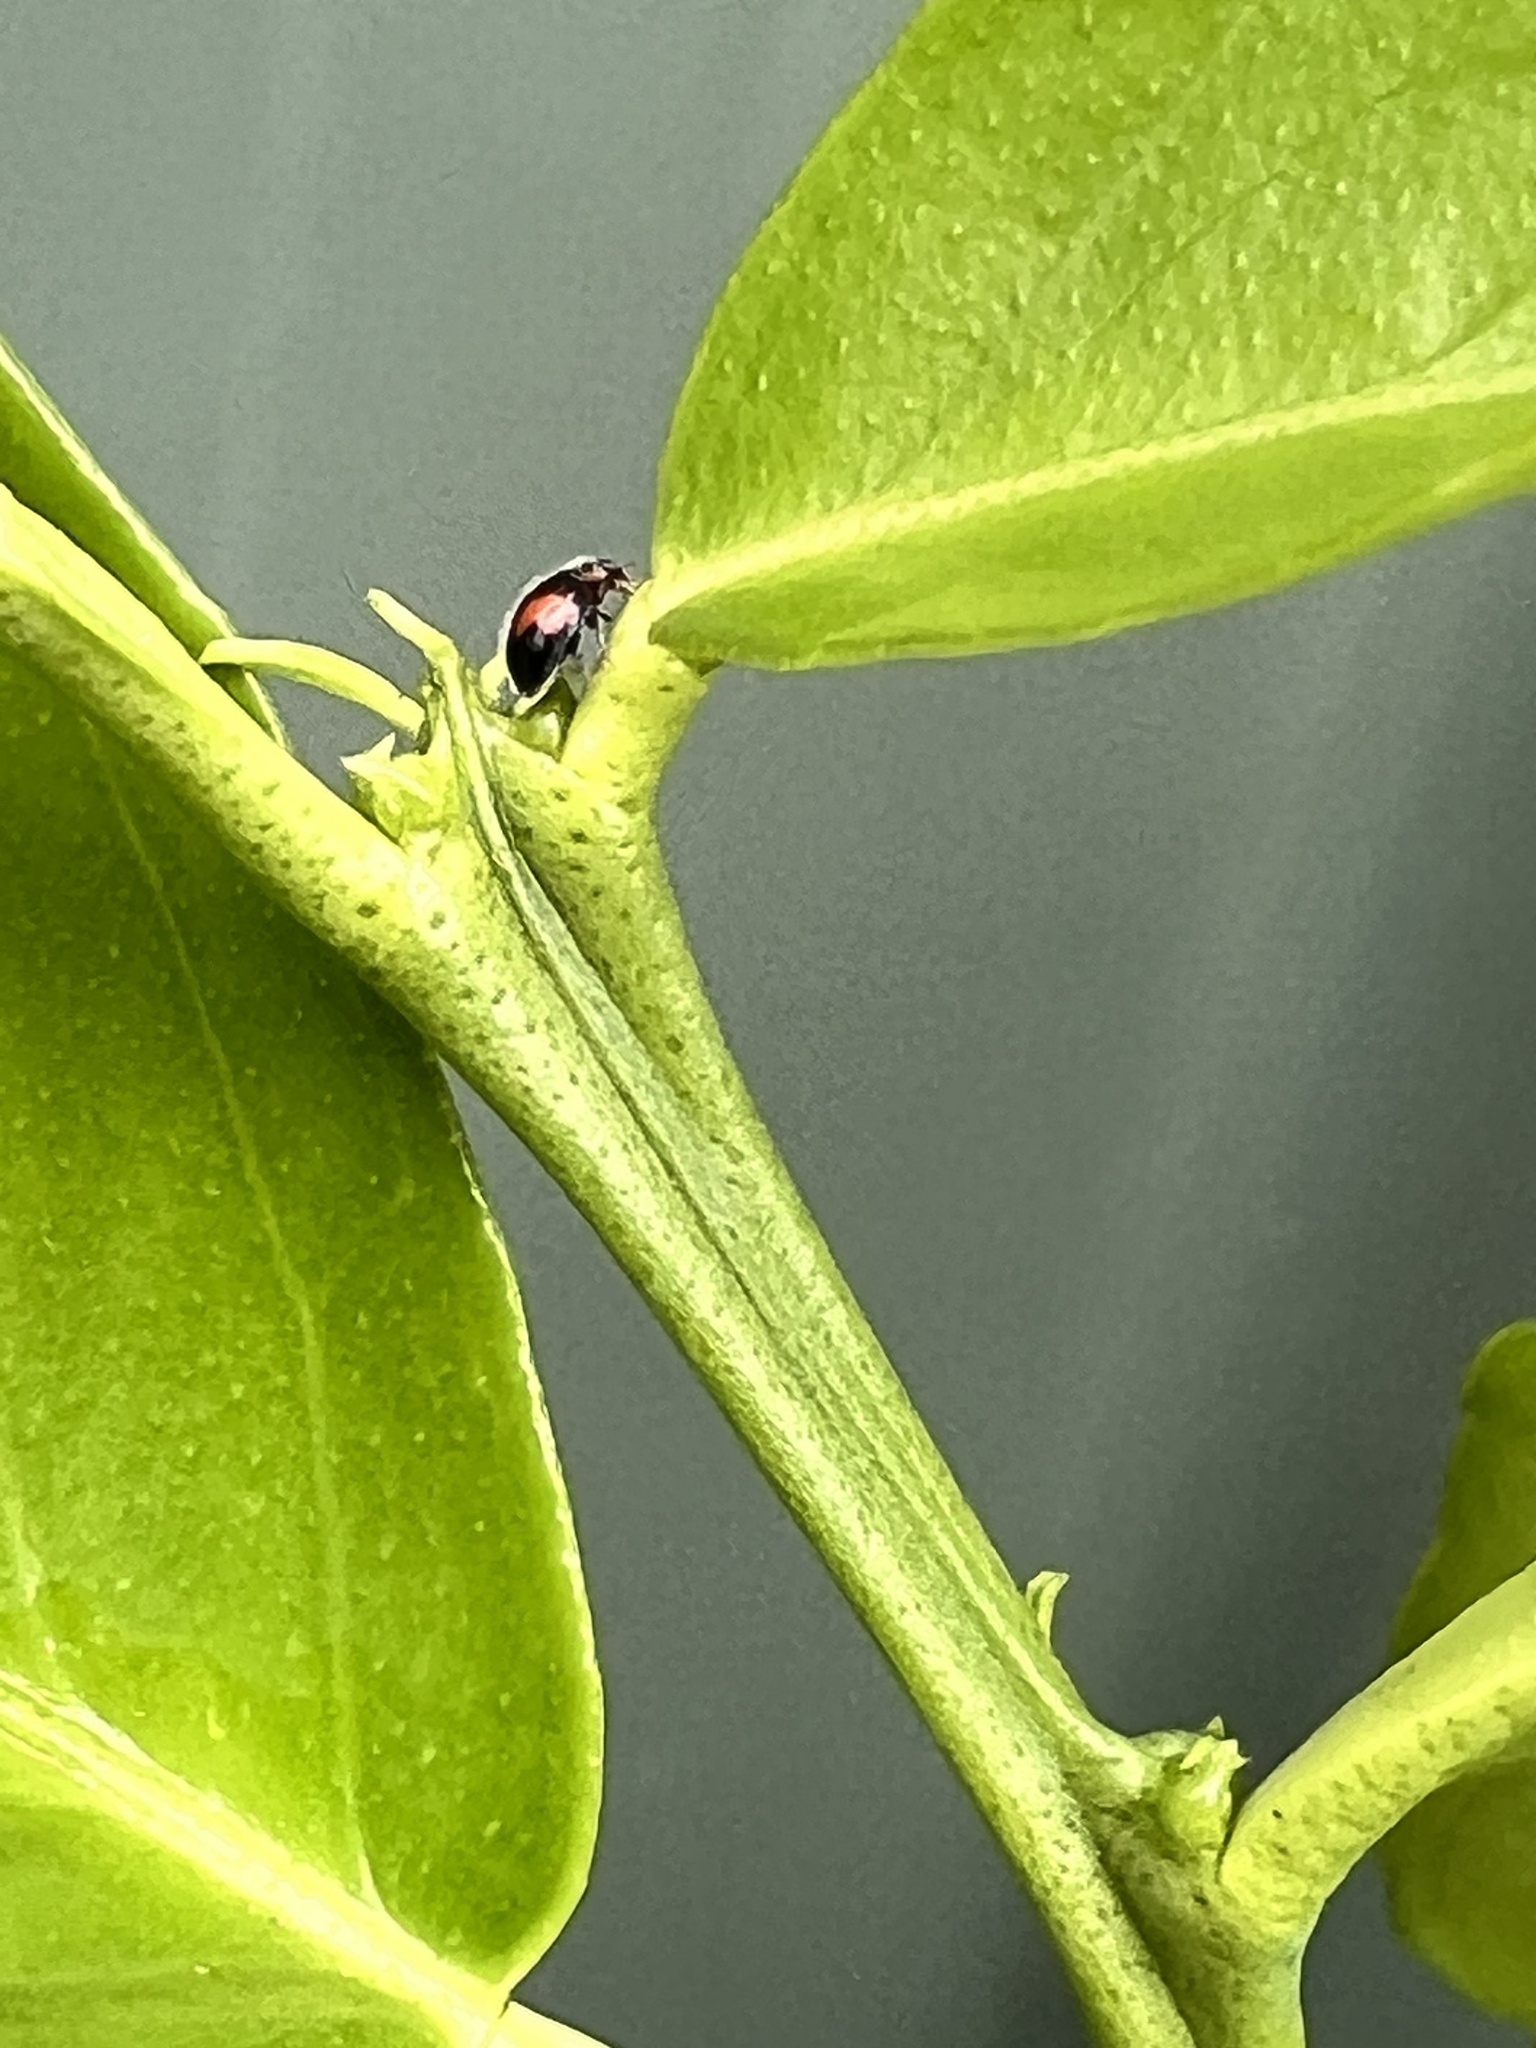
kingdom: Animalia
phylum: Arthropoda
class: Insecta
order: Coleoptera
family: Coccinellidae
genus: Scymnus
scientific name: Scymnus notescens
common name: Minute two-spotted ladybird beetle
